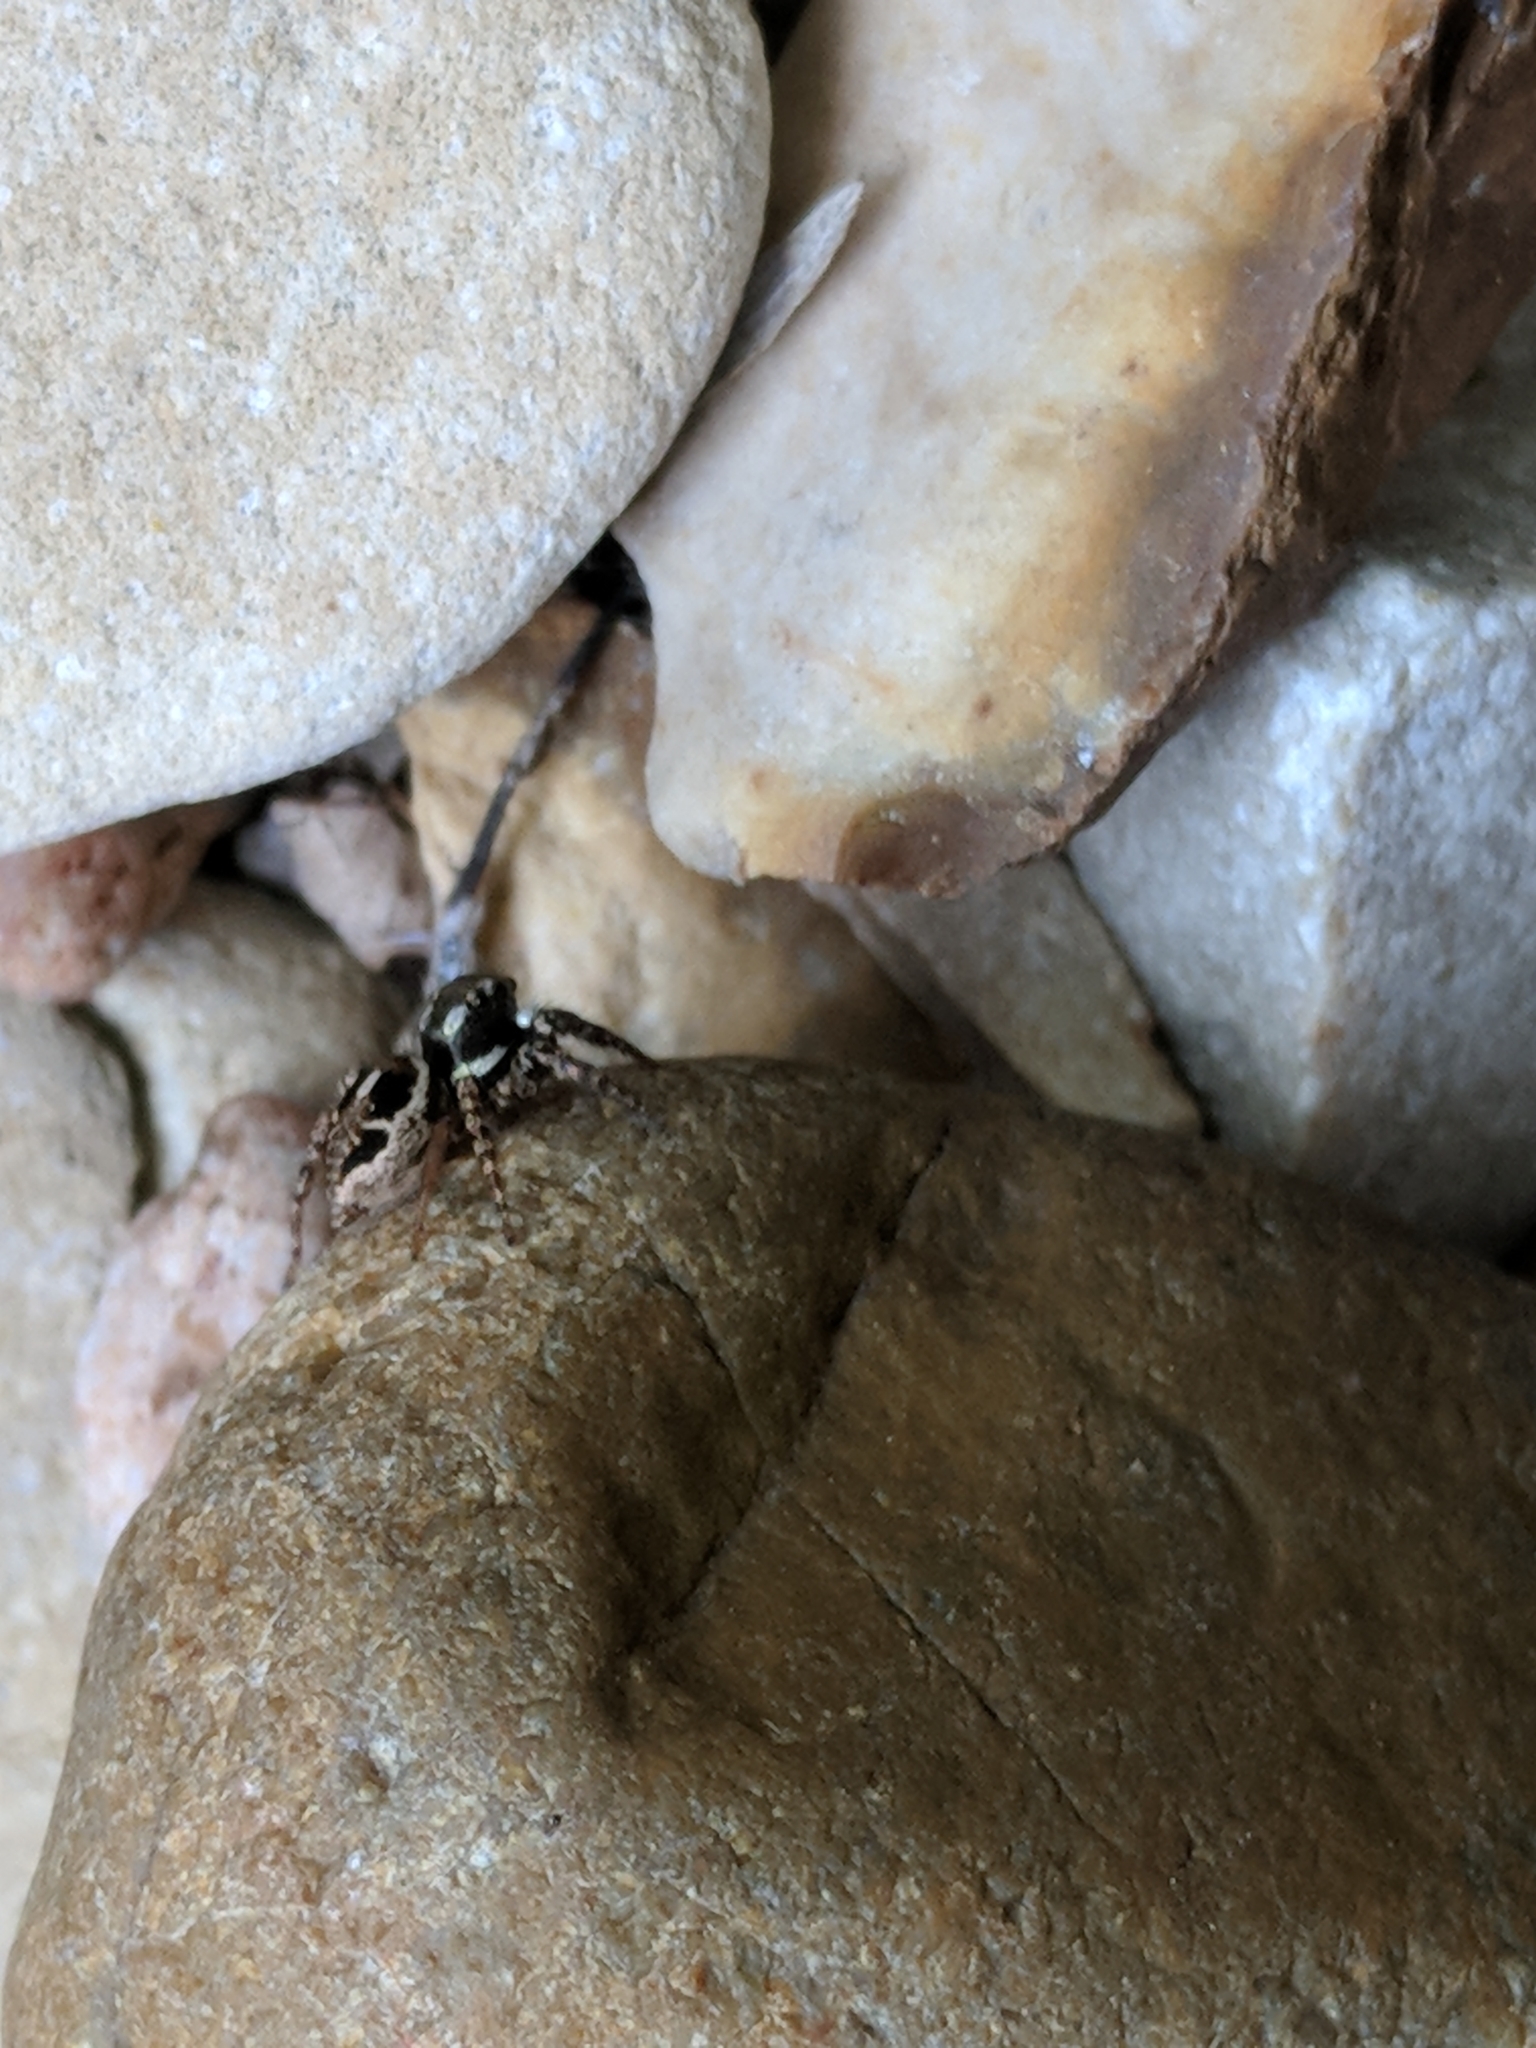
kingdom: Animalia
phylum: Arthropoda
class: Arachnida
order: Araneae
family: Salticidae
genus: Anasaitis
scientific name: Anasaitis canosa
